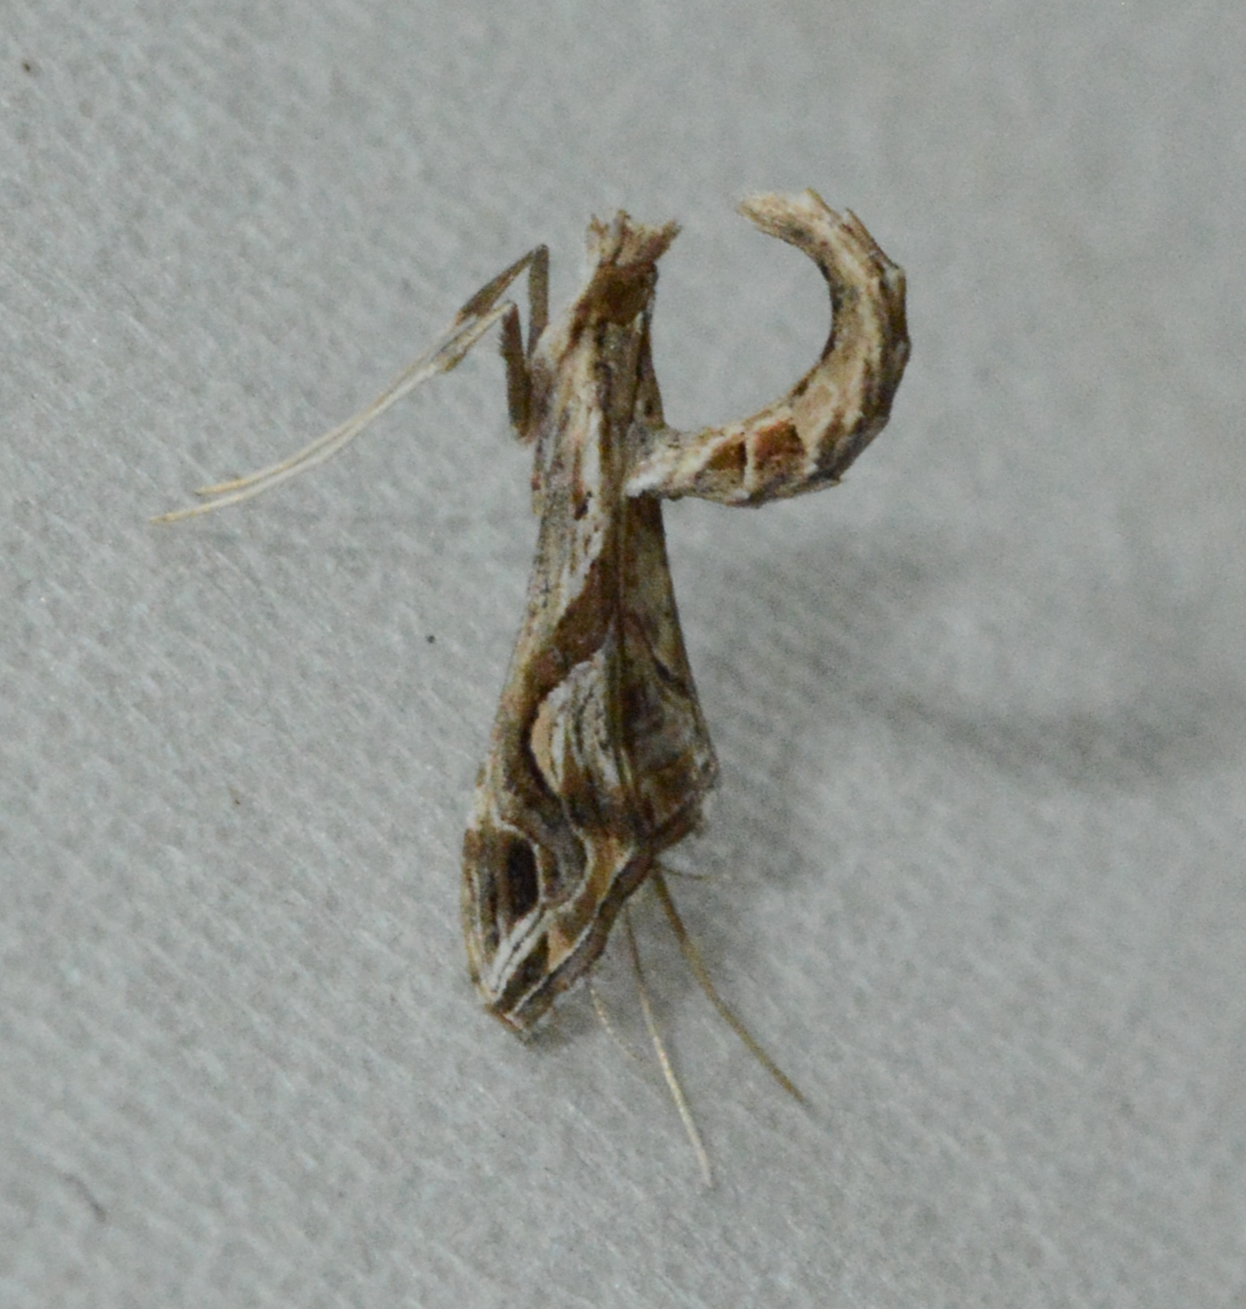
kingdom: Animalia
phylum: Arthropoda
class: Insecta
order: Lepidoptera
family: Crambidae
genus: Lineodes
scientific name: Lineodes integra
